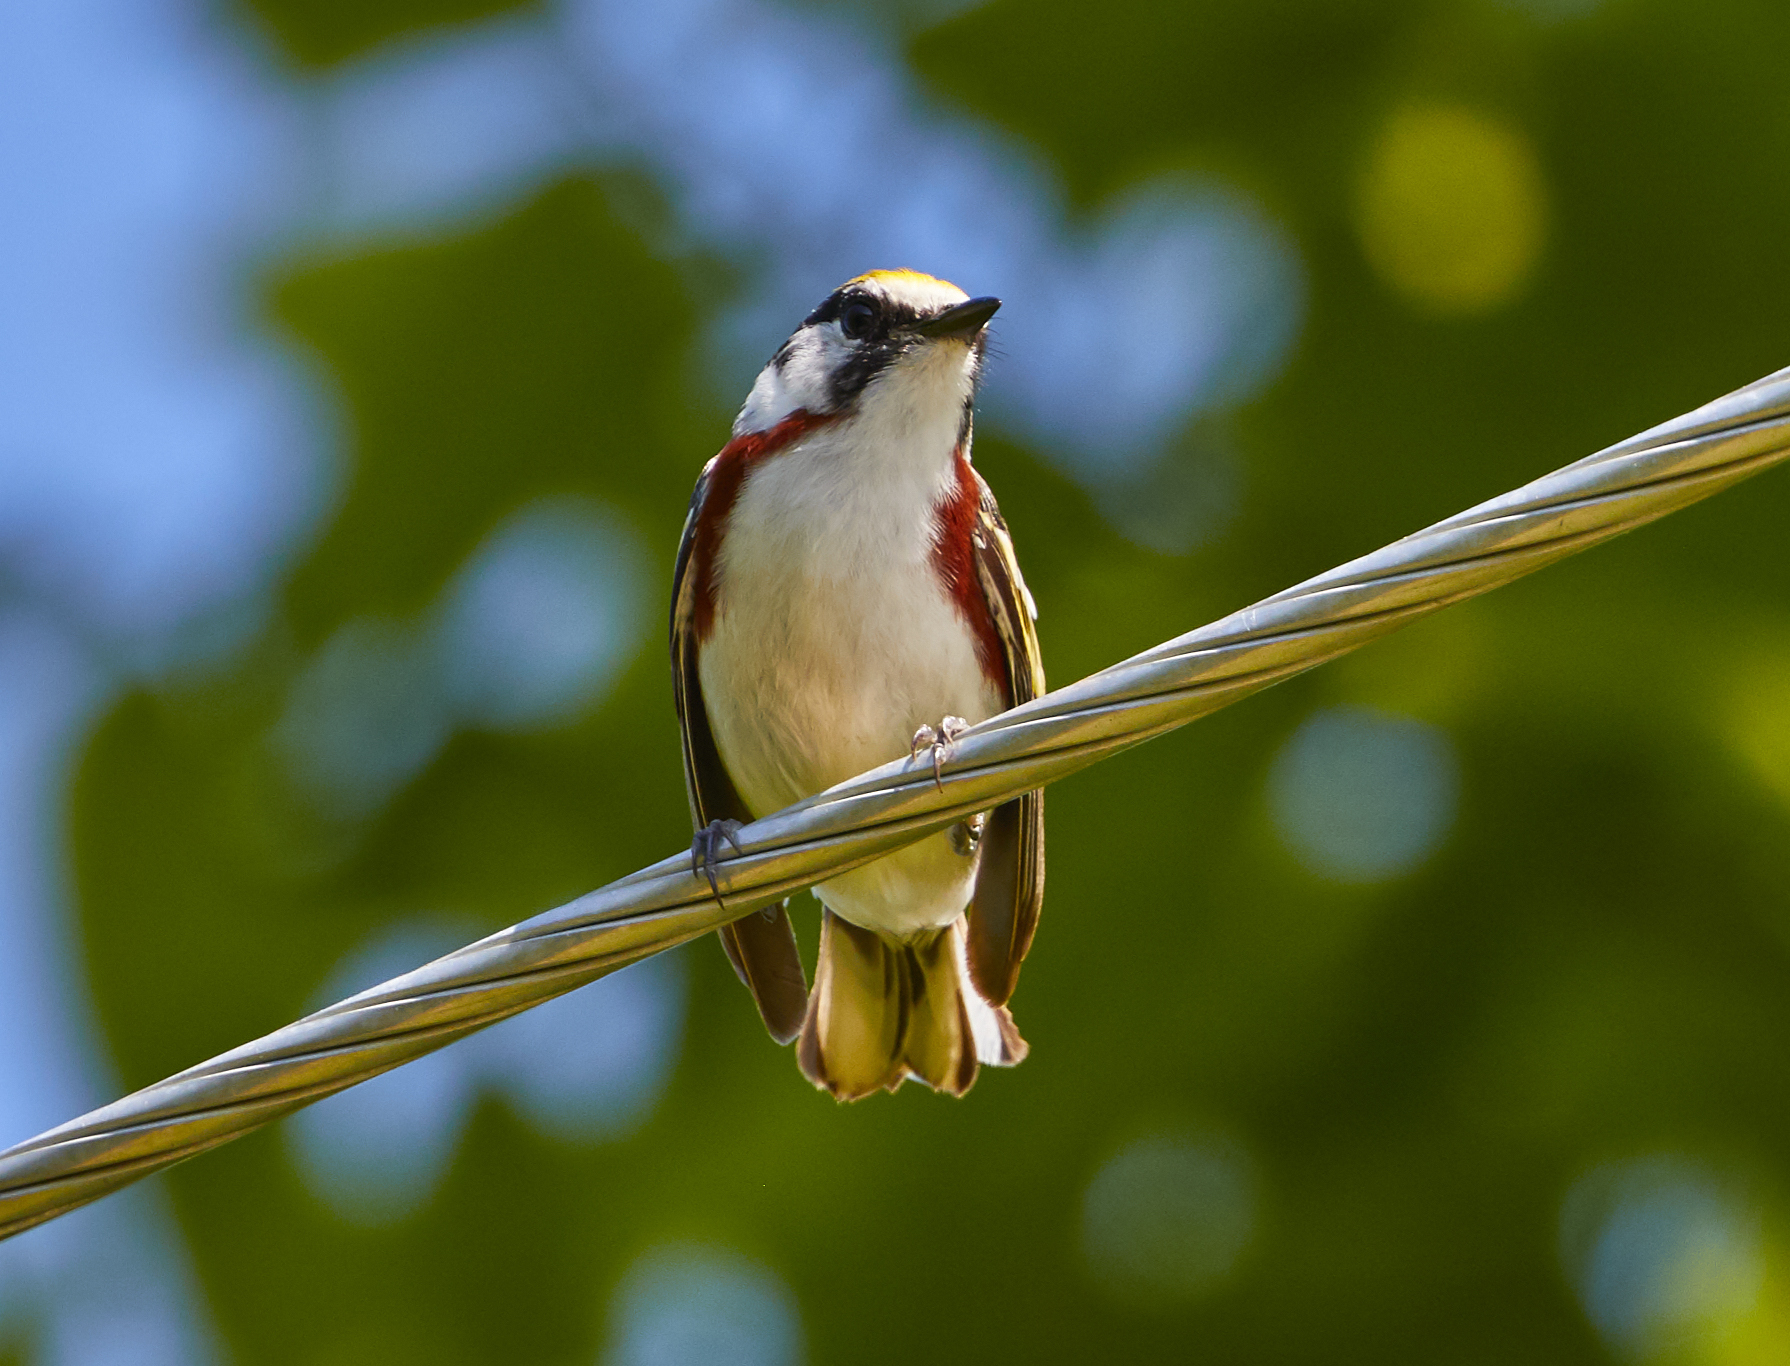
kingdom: Animalia
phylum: Chordata
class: Aves
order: Passeriformes
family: Parulidae
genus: Setophaga
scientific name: Setophaga pensylvanica
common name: Chestnut-sided warbler
